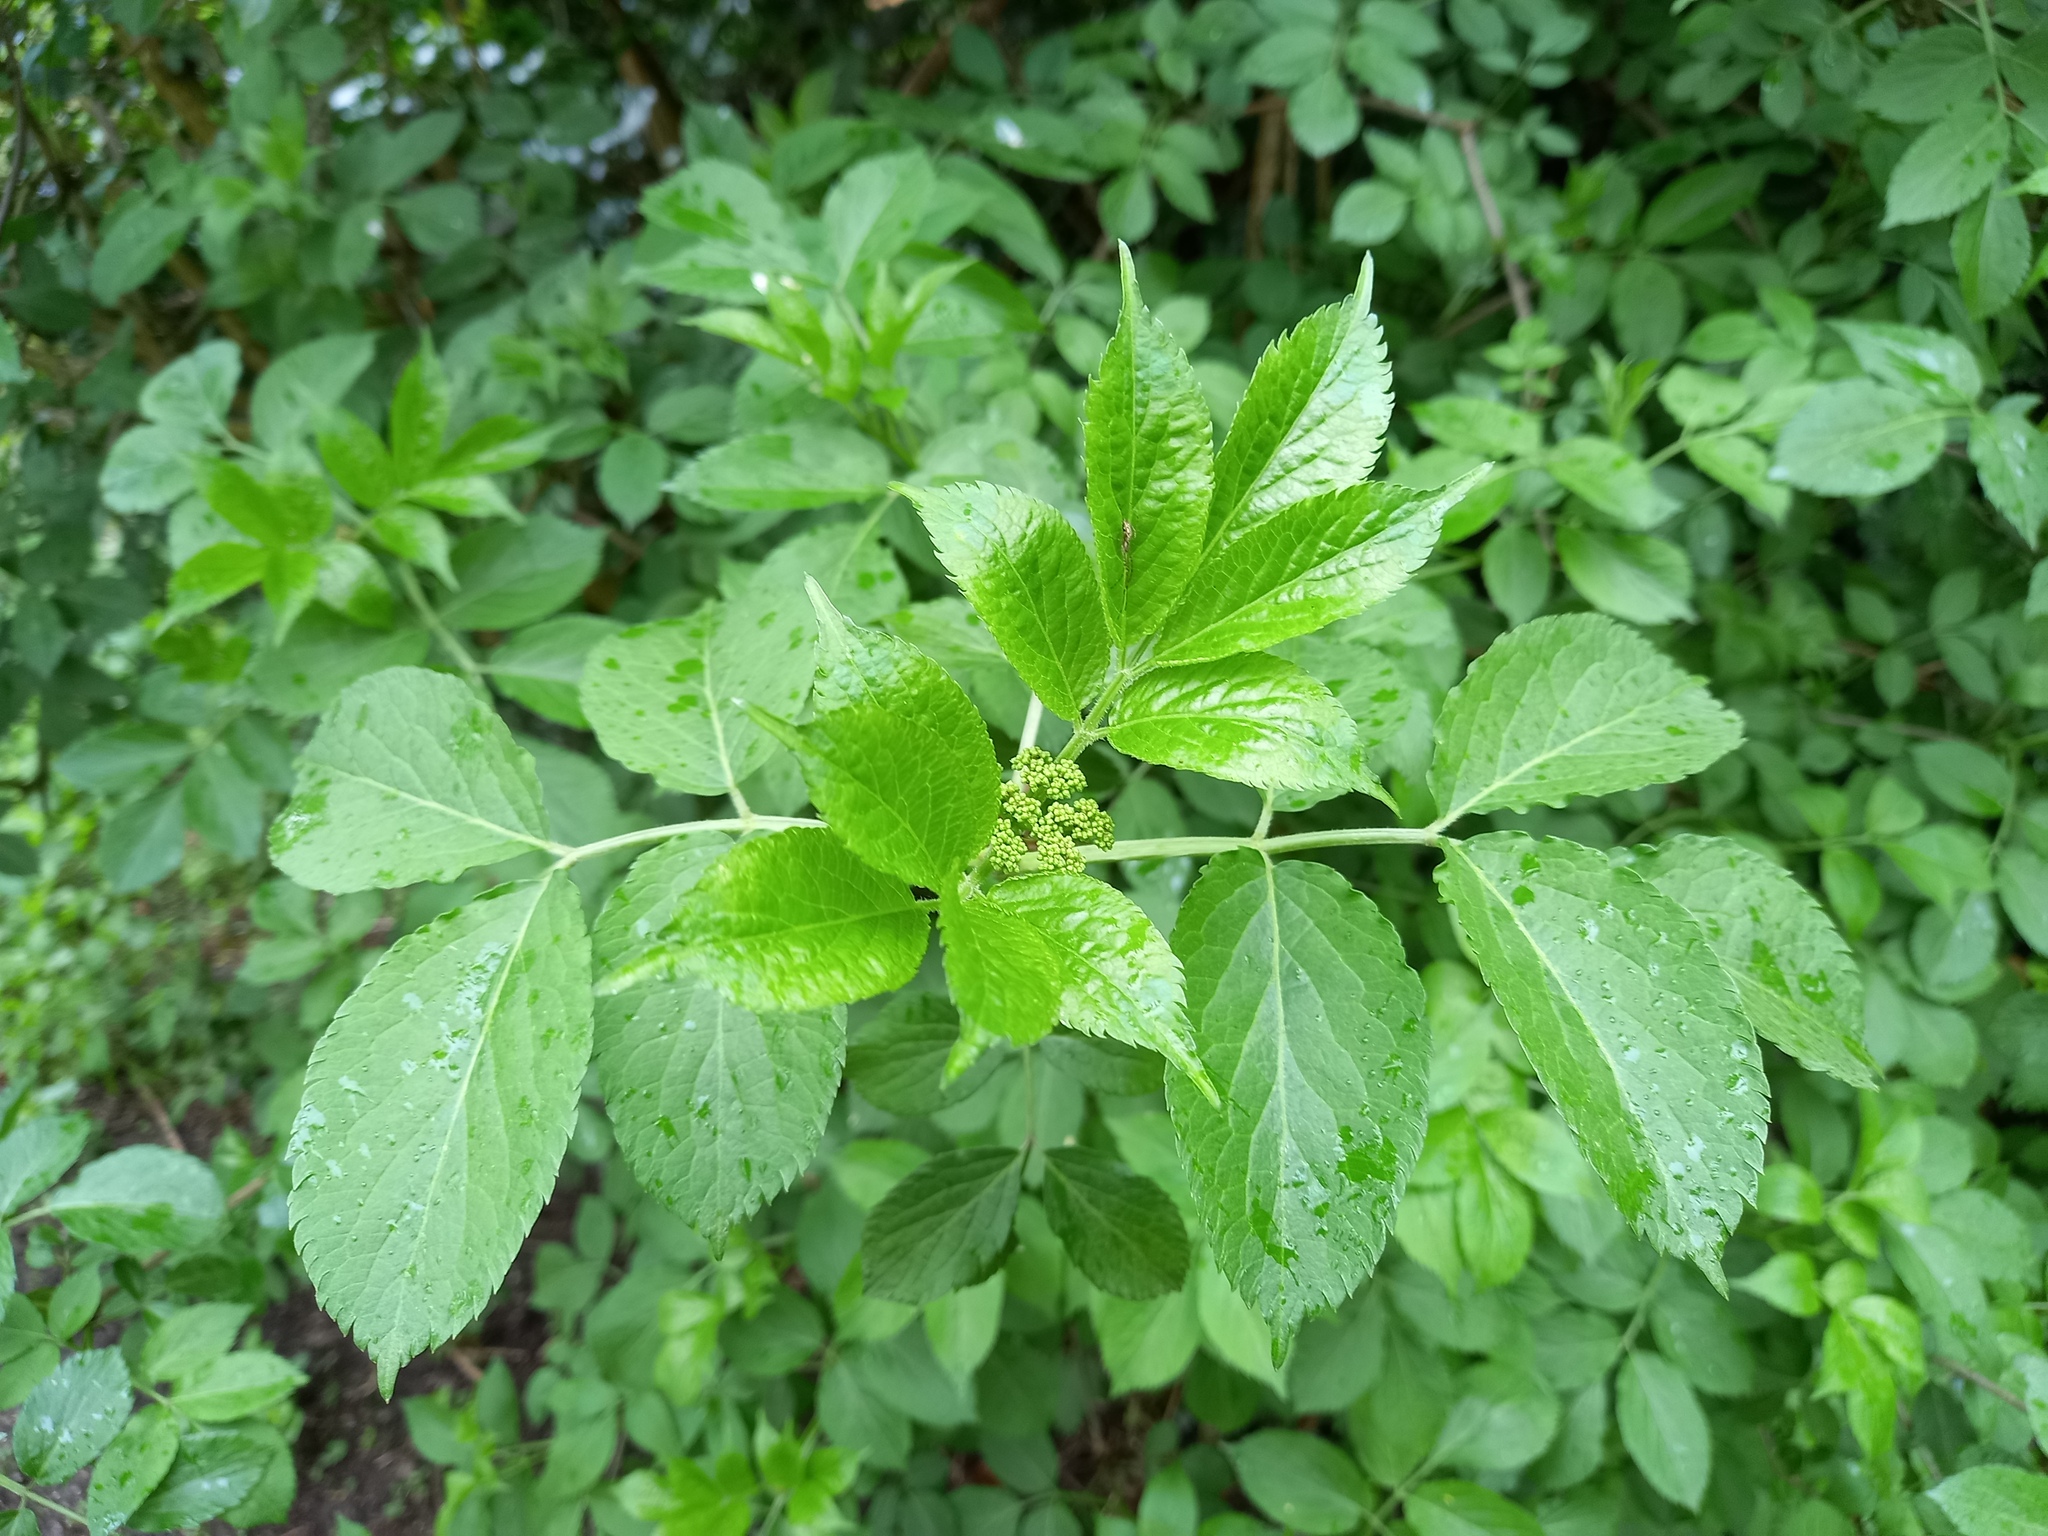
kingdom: Plantae
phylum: Tracheophyta
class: Magnoliopsida
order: Dipsacales
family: Viburnaceae
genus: Sambucus
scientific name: Sambucus nigra
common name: Elder
